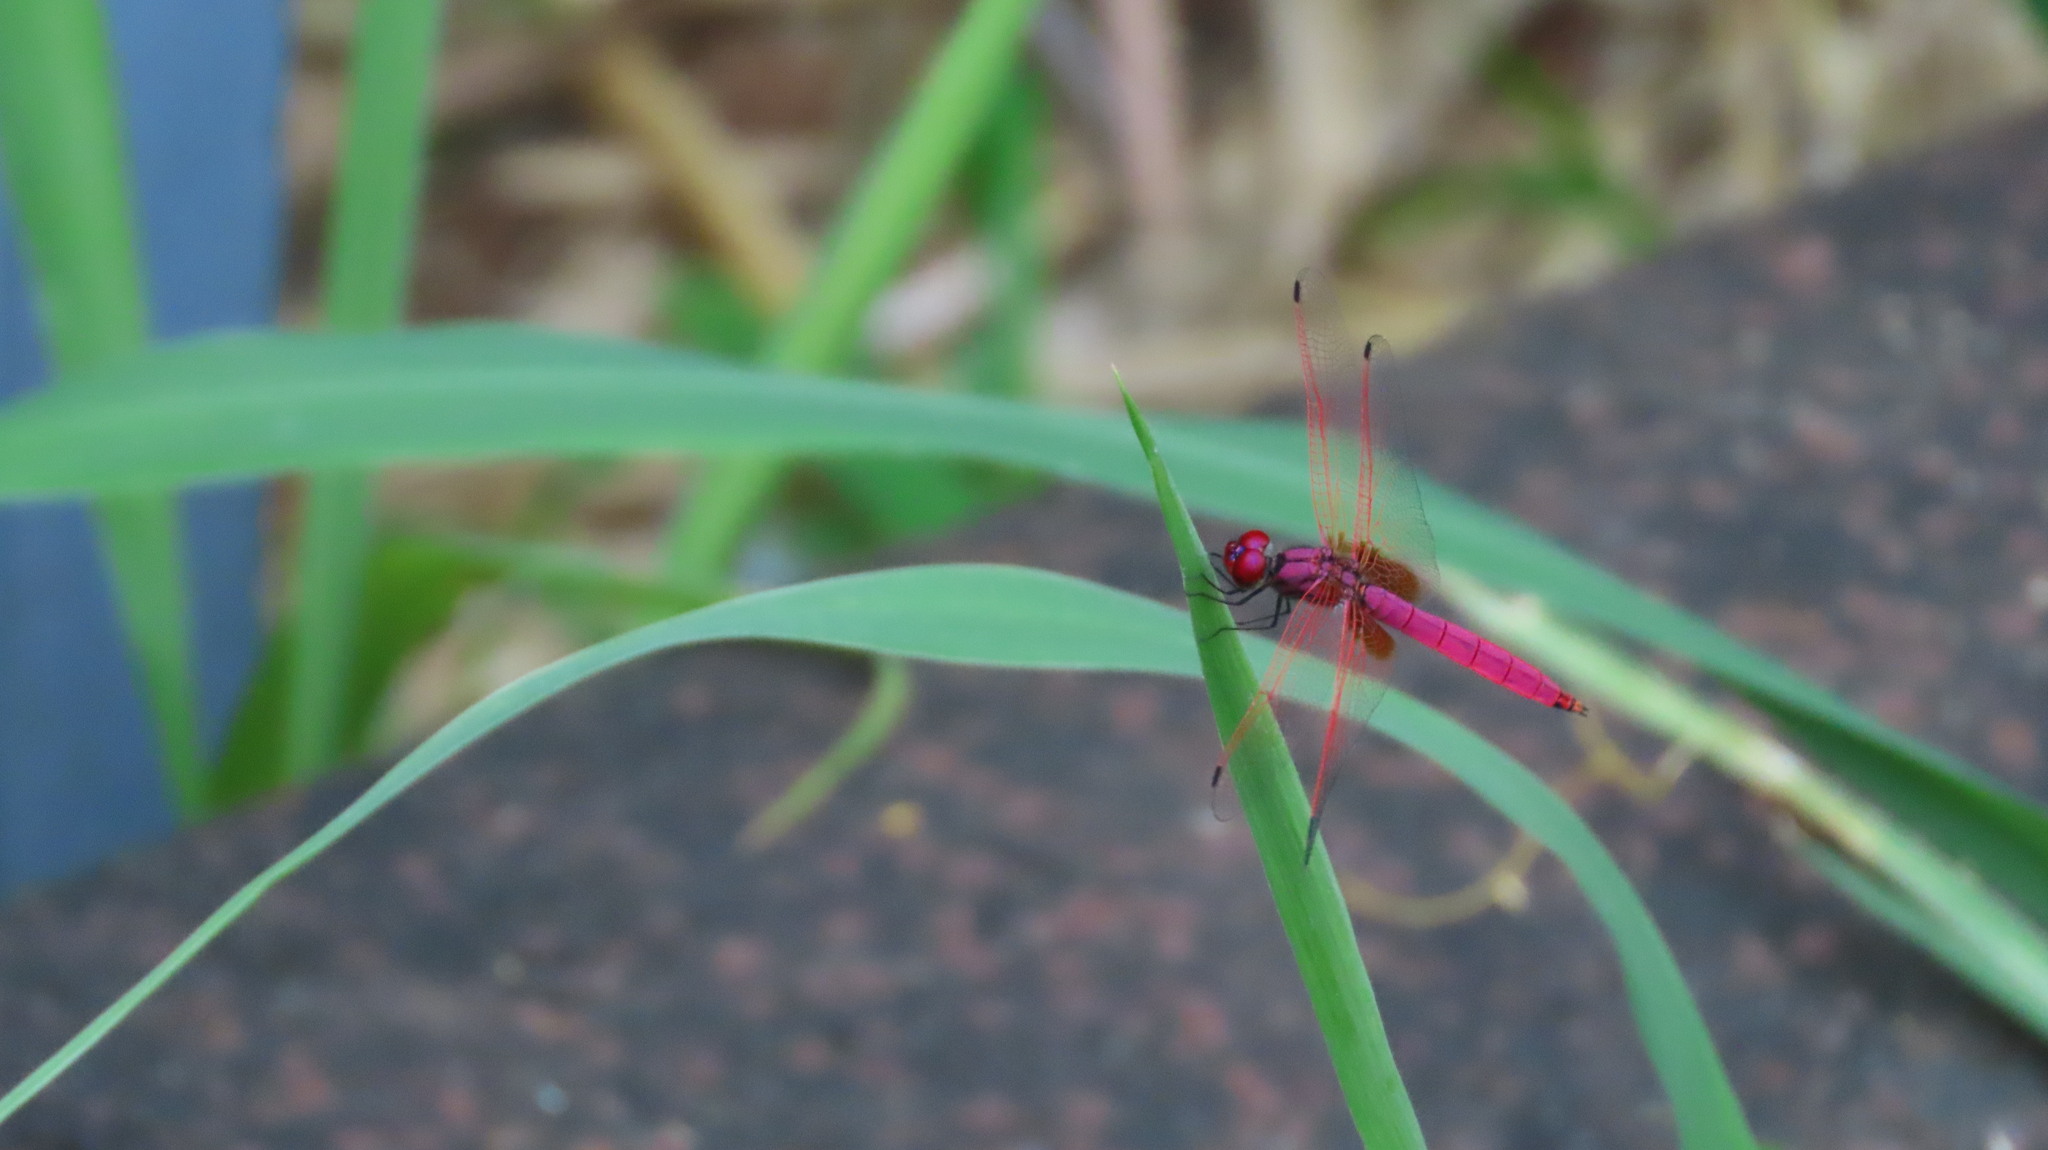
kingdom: Animalia
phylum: Arthropoda
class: Insecta
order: Odonata
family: Libellulidae
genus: Trithemis
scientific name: Trithemis aurora
